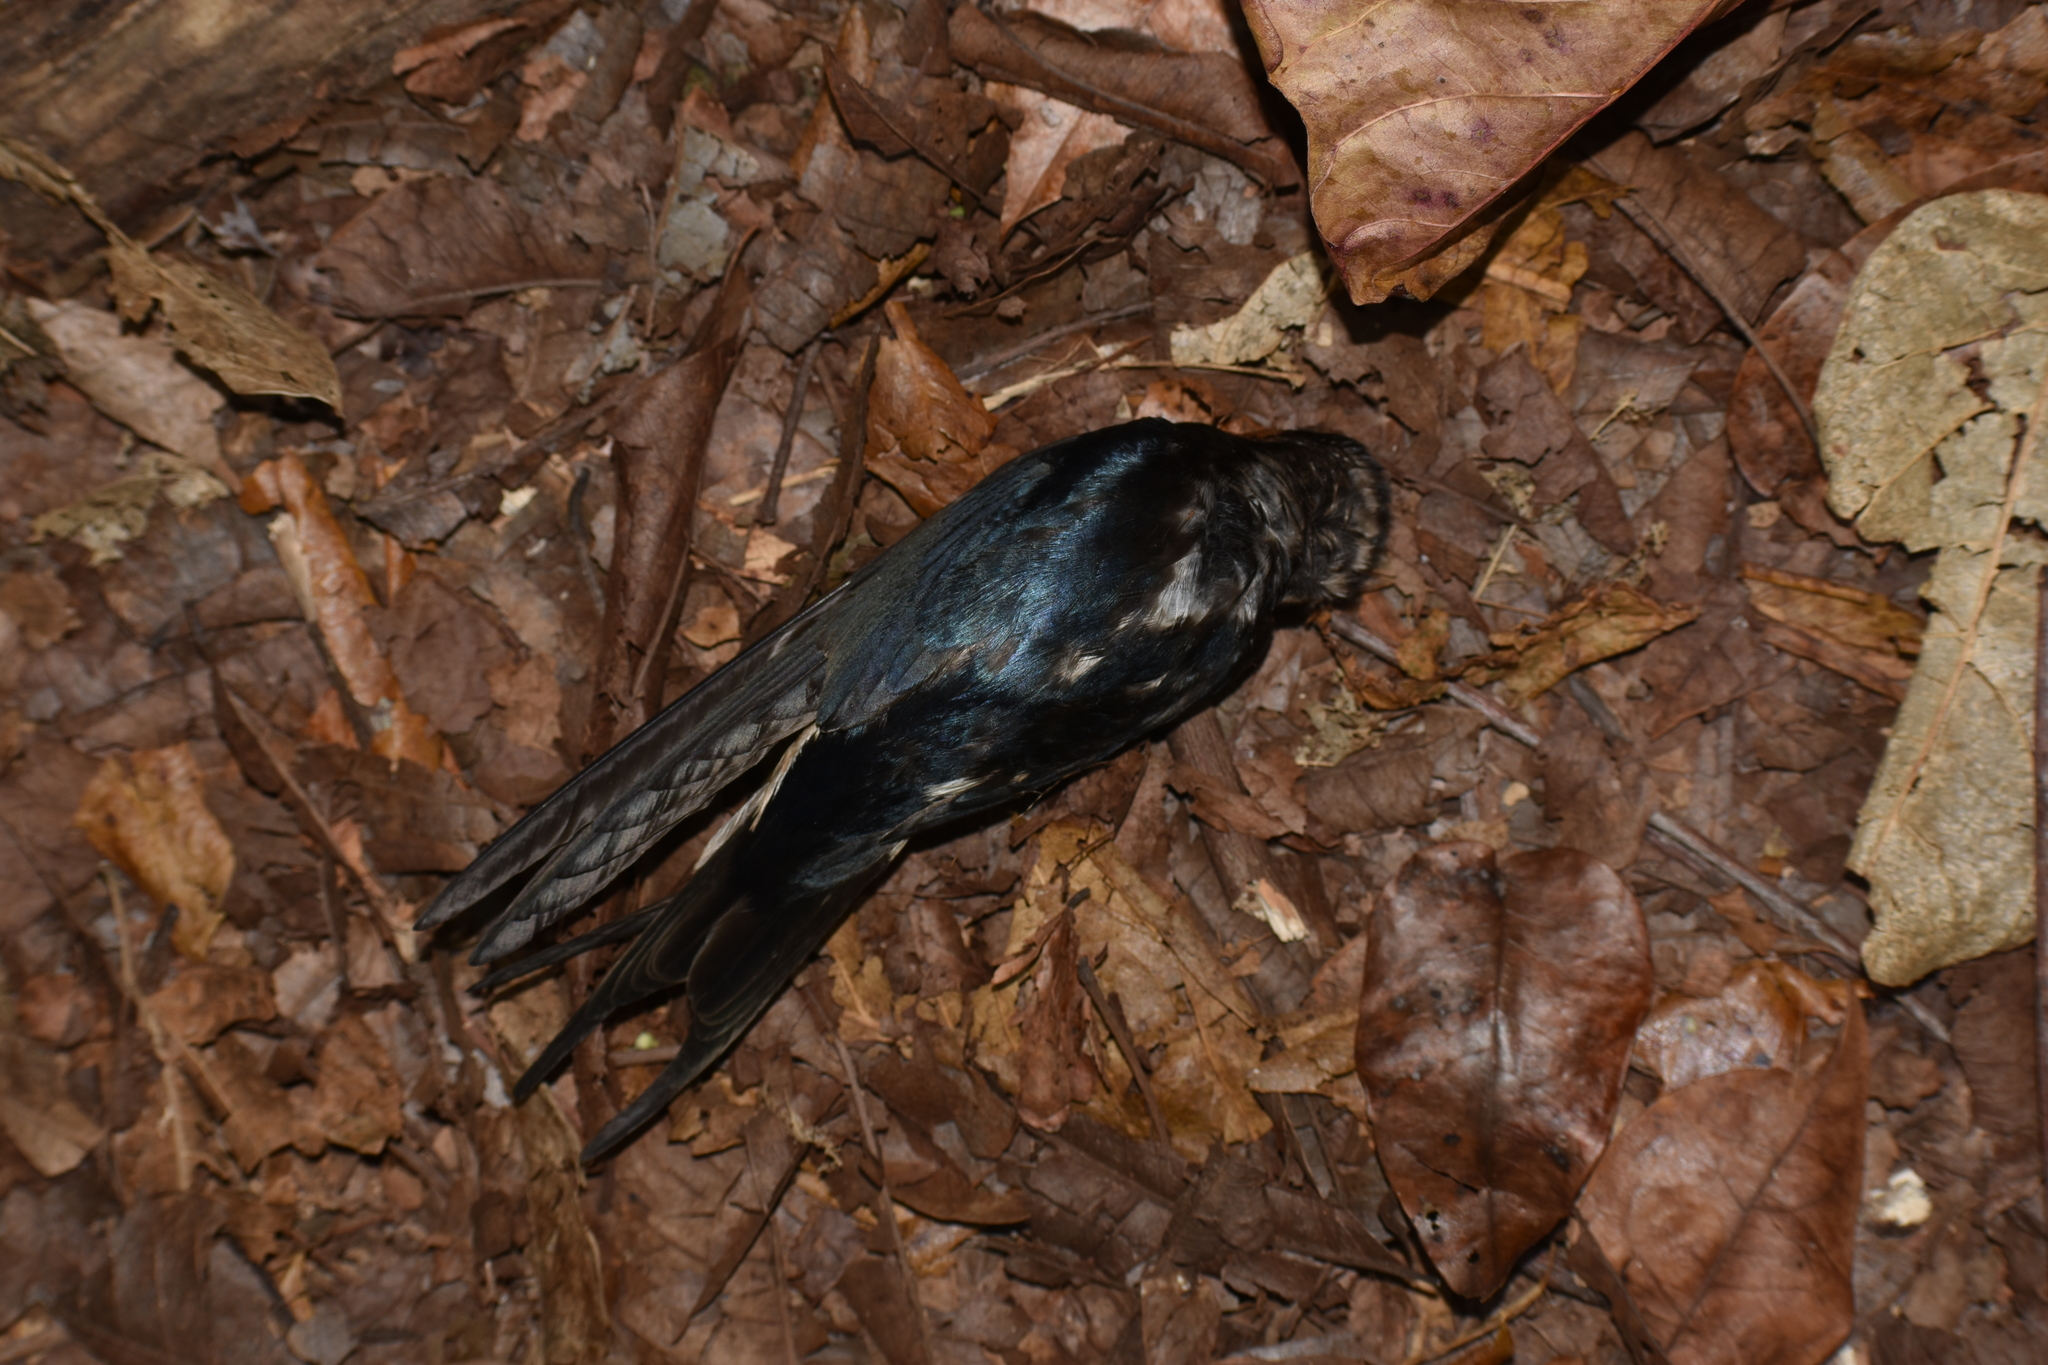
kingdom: Animalia
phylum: Chordata
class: Aves
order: Passeriformes
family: Hirundinidae
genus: Hirundo
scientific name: Hirundo rustica
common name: Barn swallow
